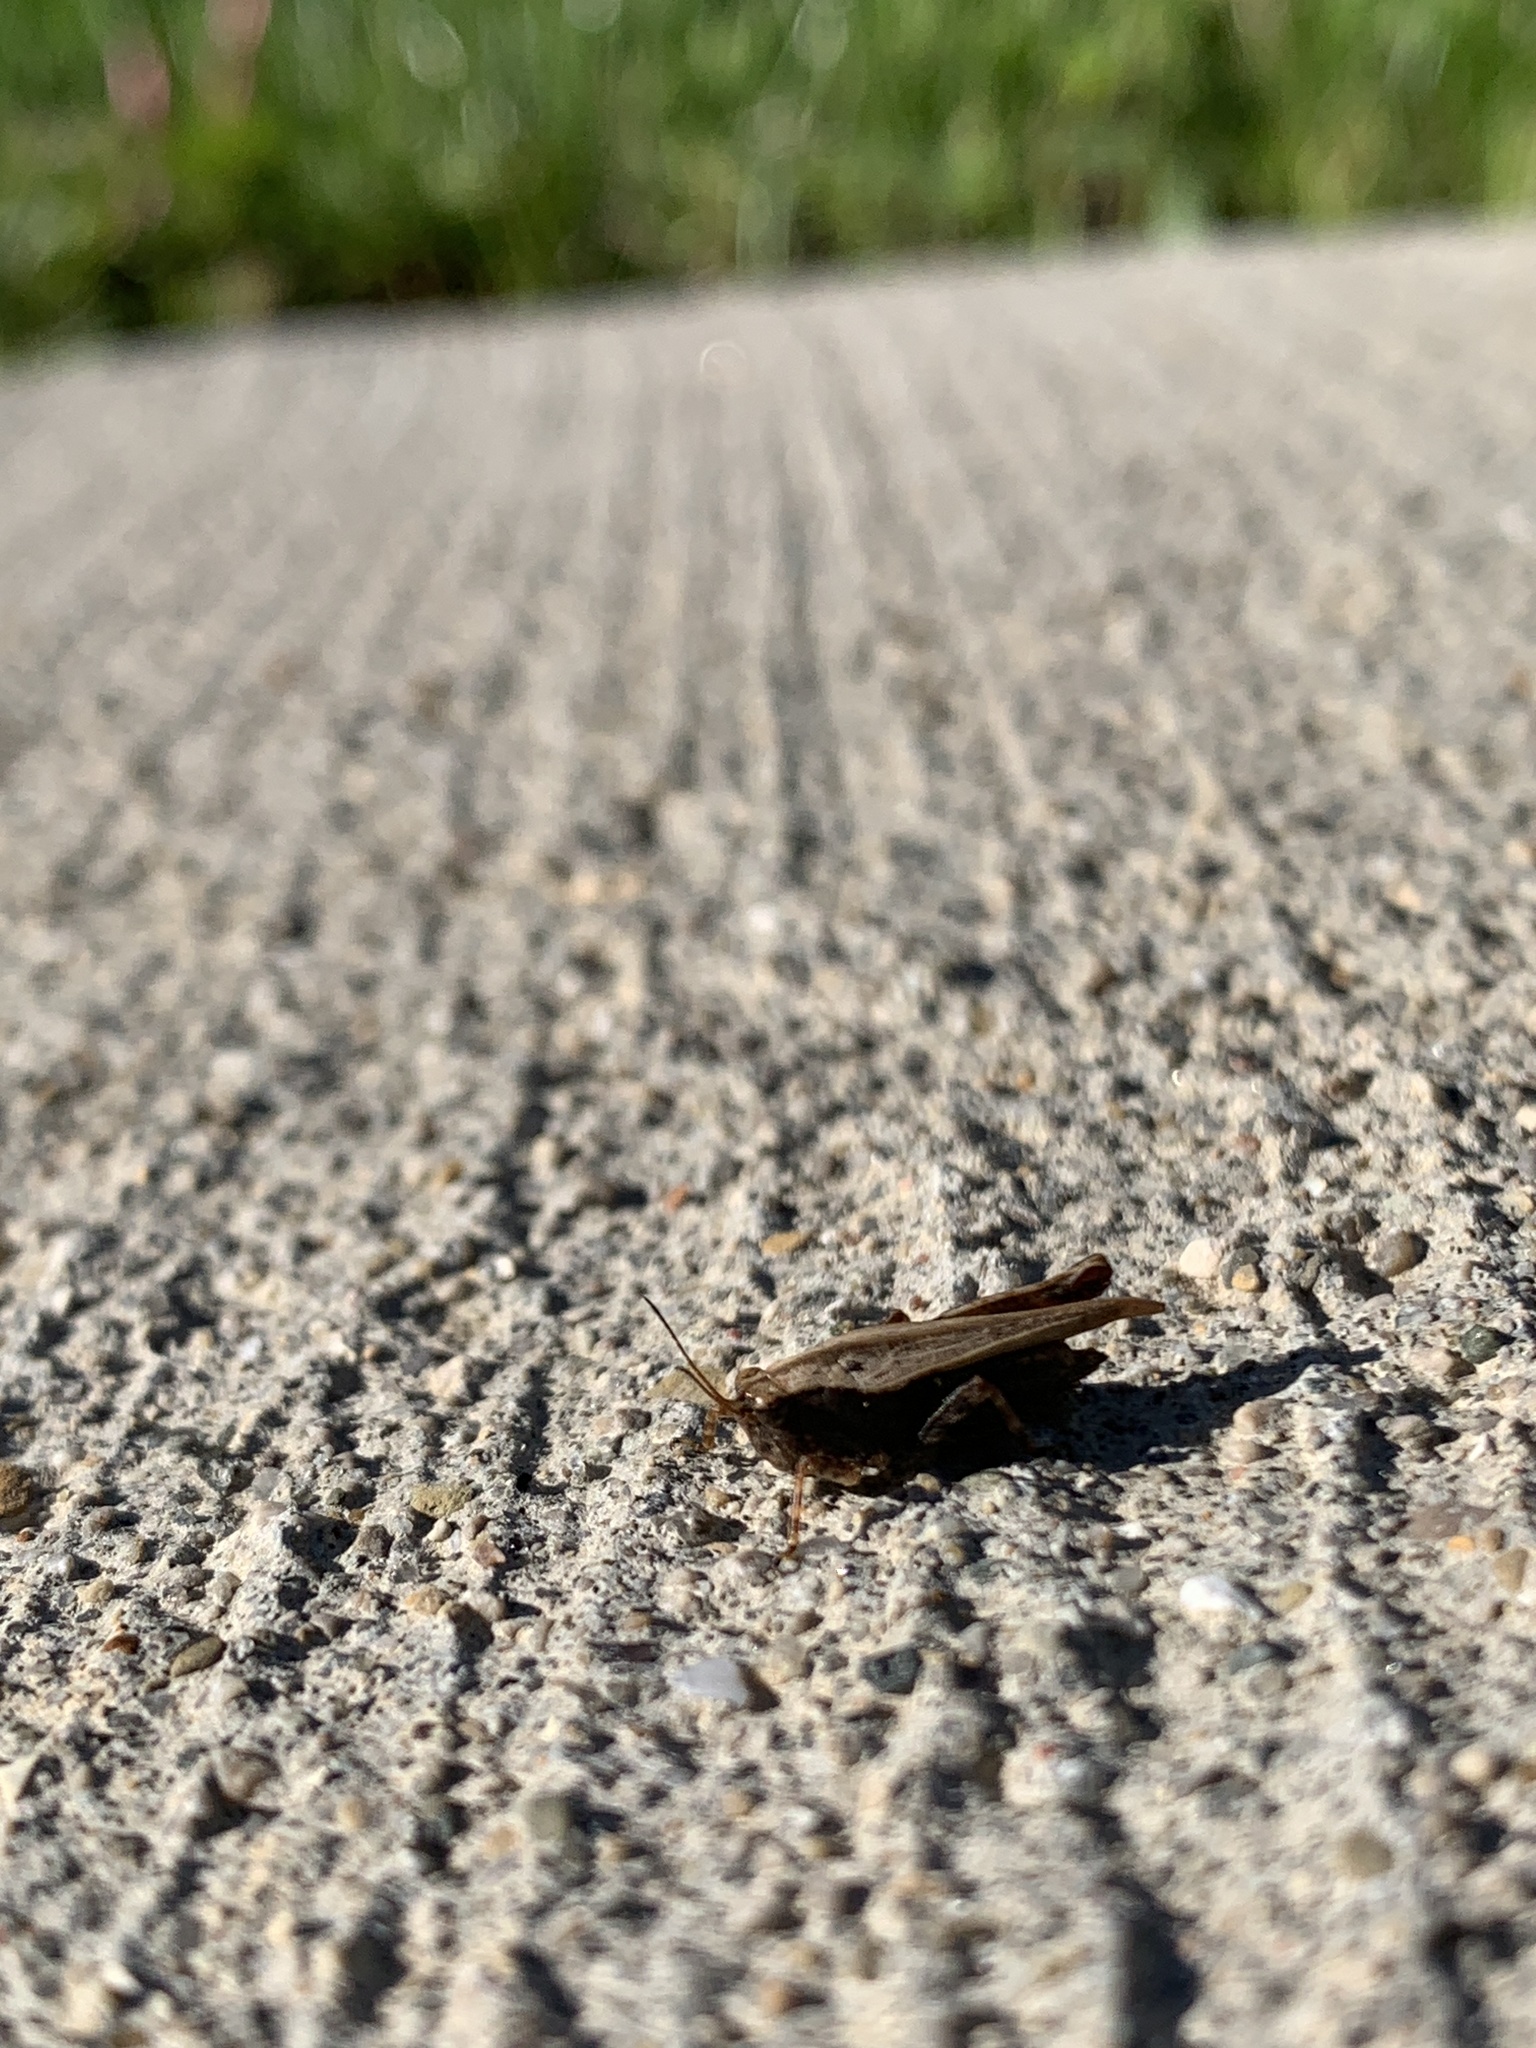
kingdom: Animalia
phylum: Arthropoda
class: Insecta
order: Orthoptera
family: Tetrigidae
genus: Tettigidea
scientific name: Tettigidea laterale
